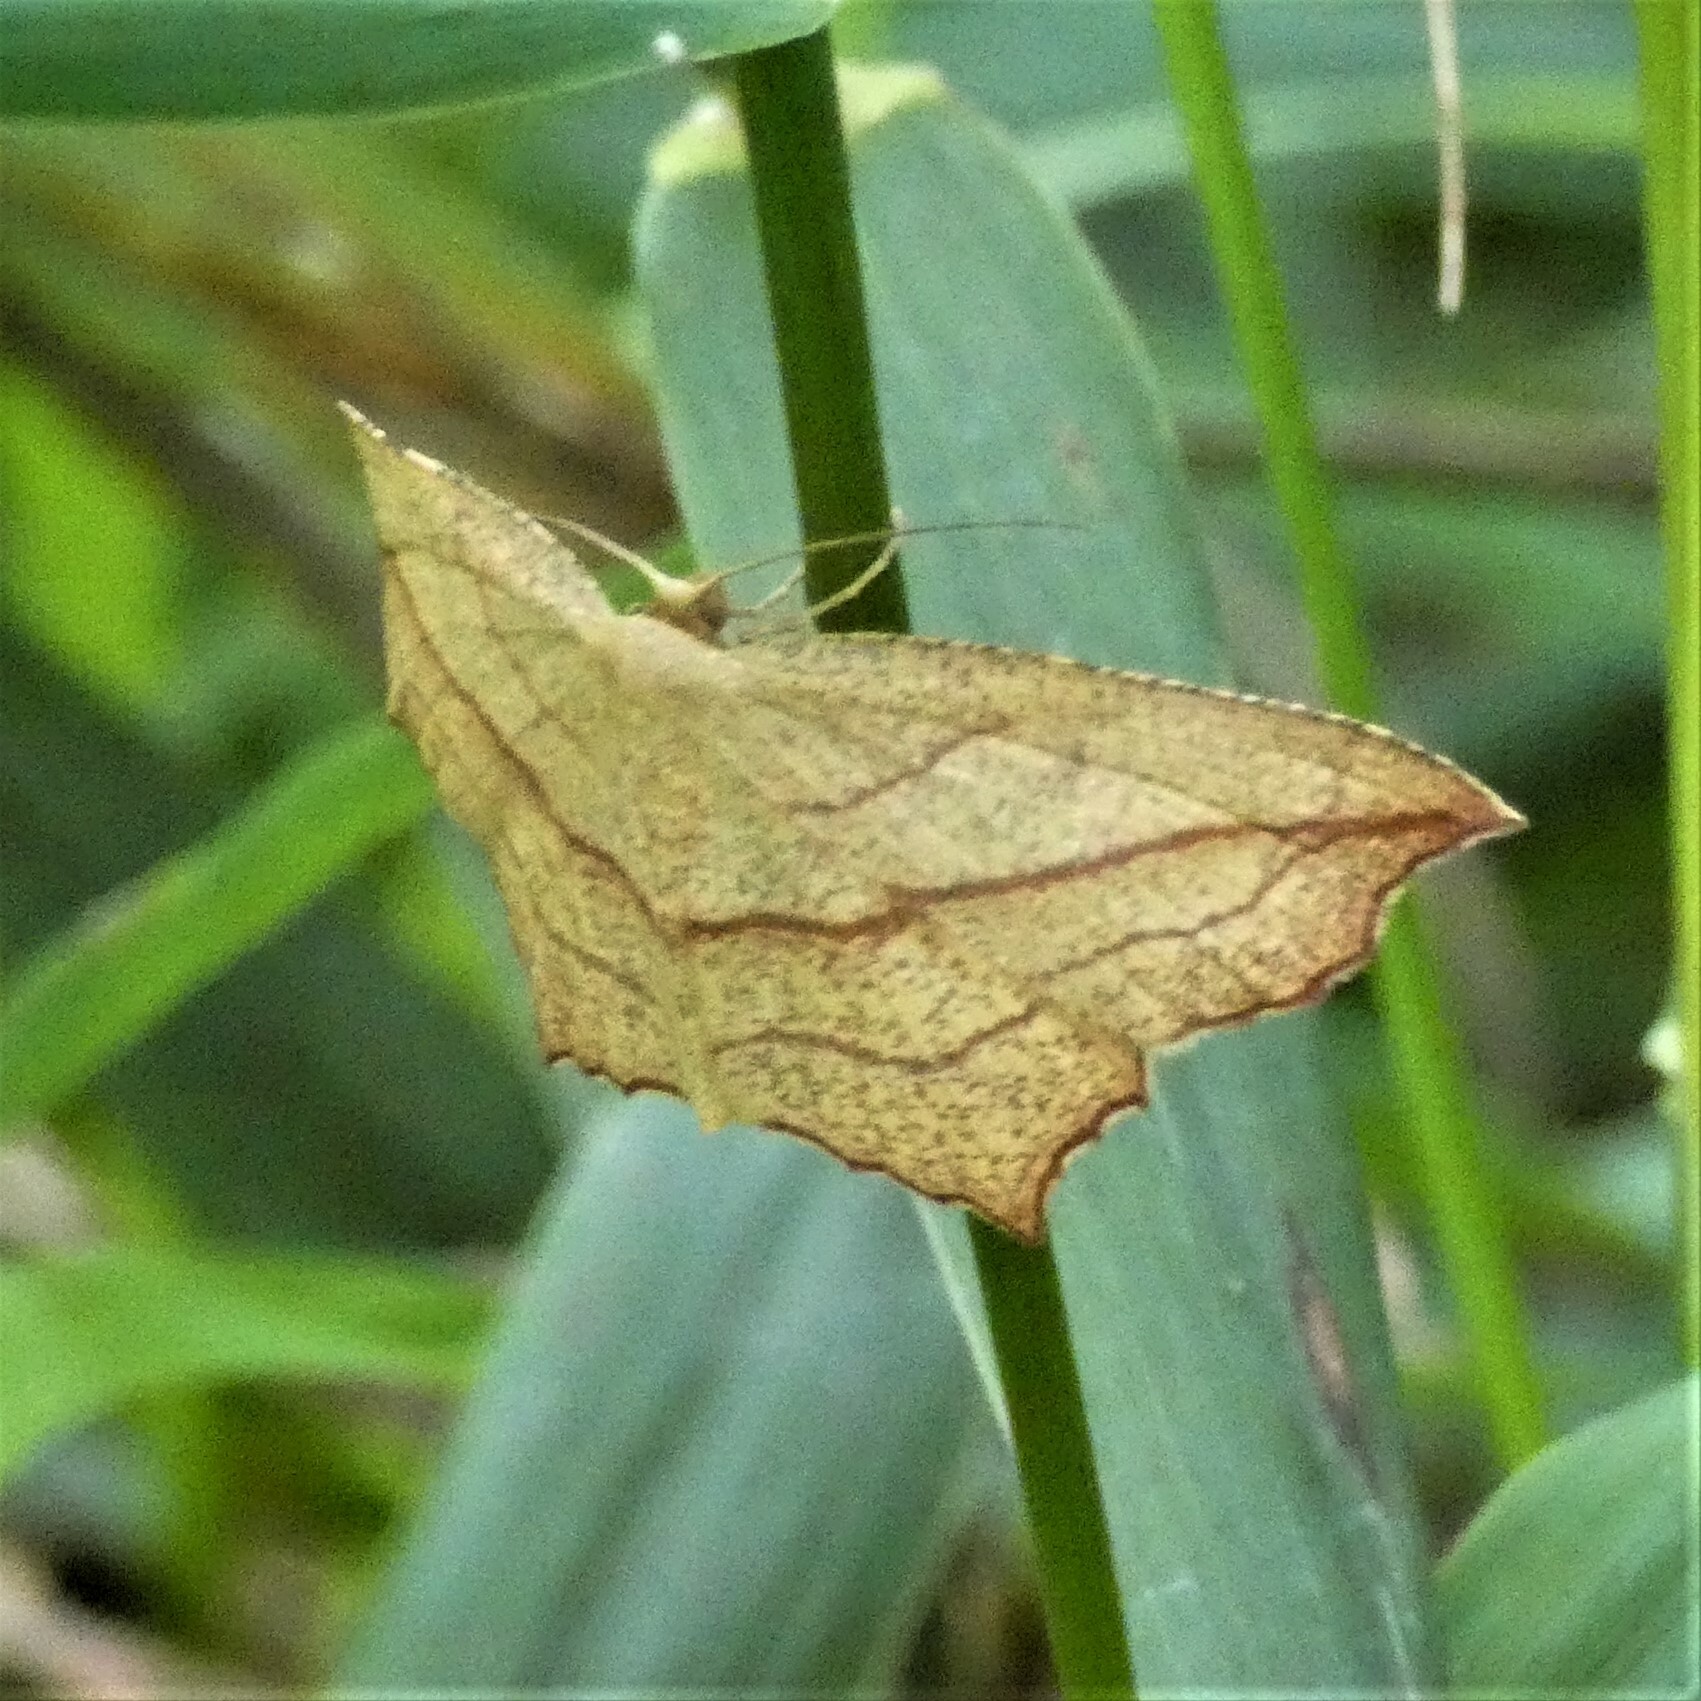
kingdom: Animalia
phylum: Arthropoda
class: Insecta
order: Lepidoptera
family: Geometridae
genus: Timandra
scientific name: Timandra amaturaria
